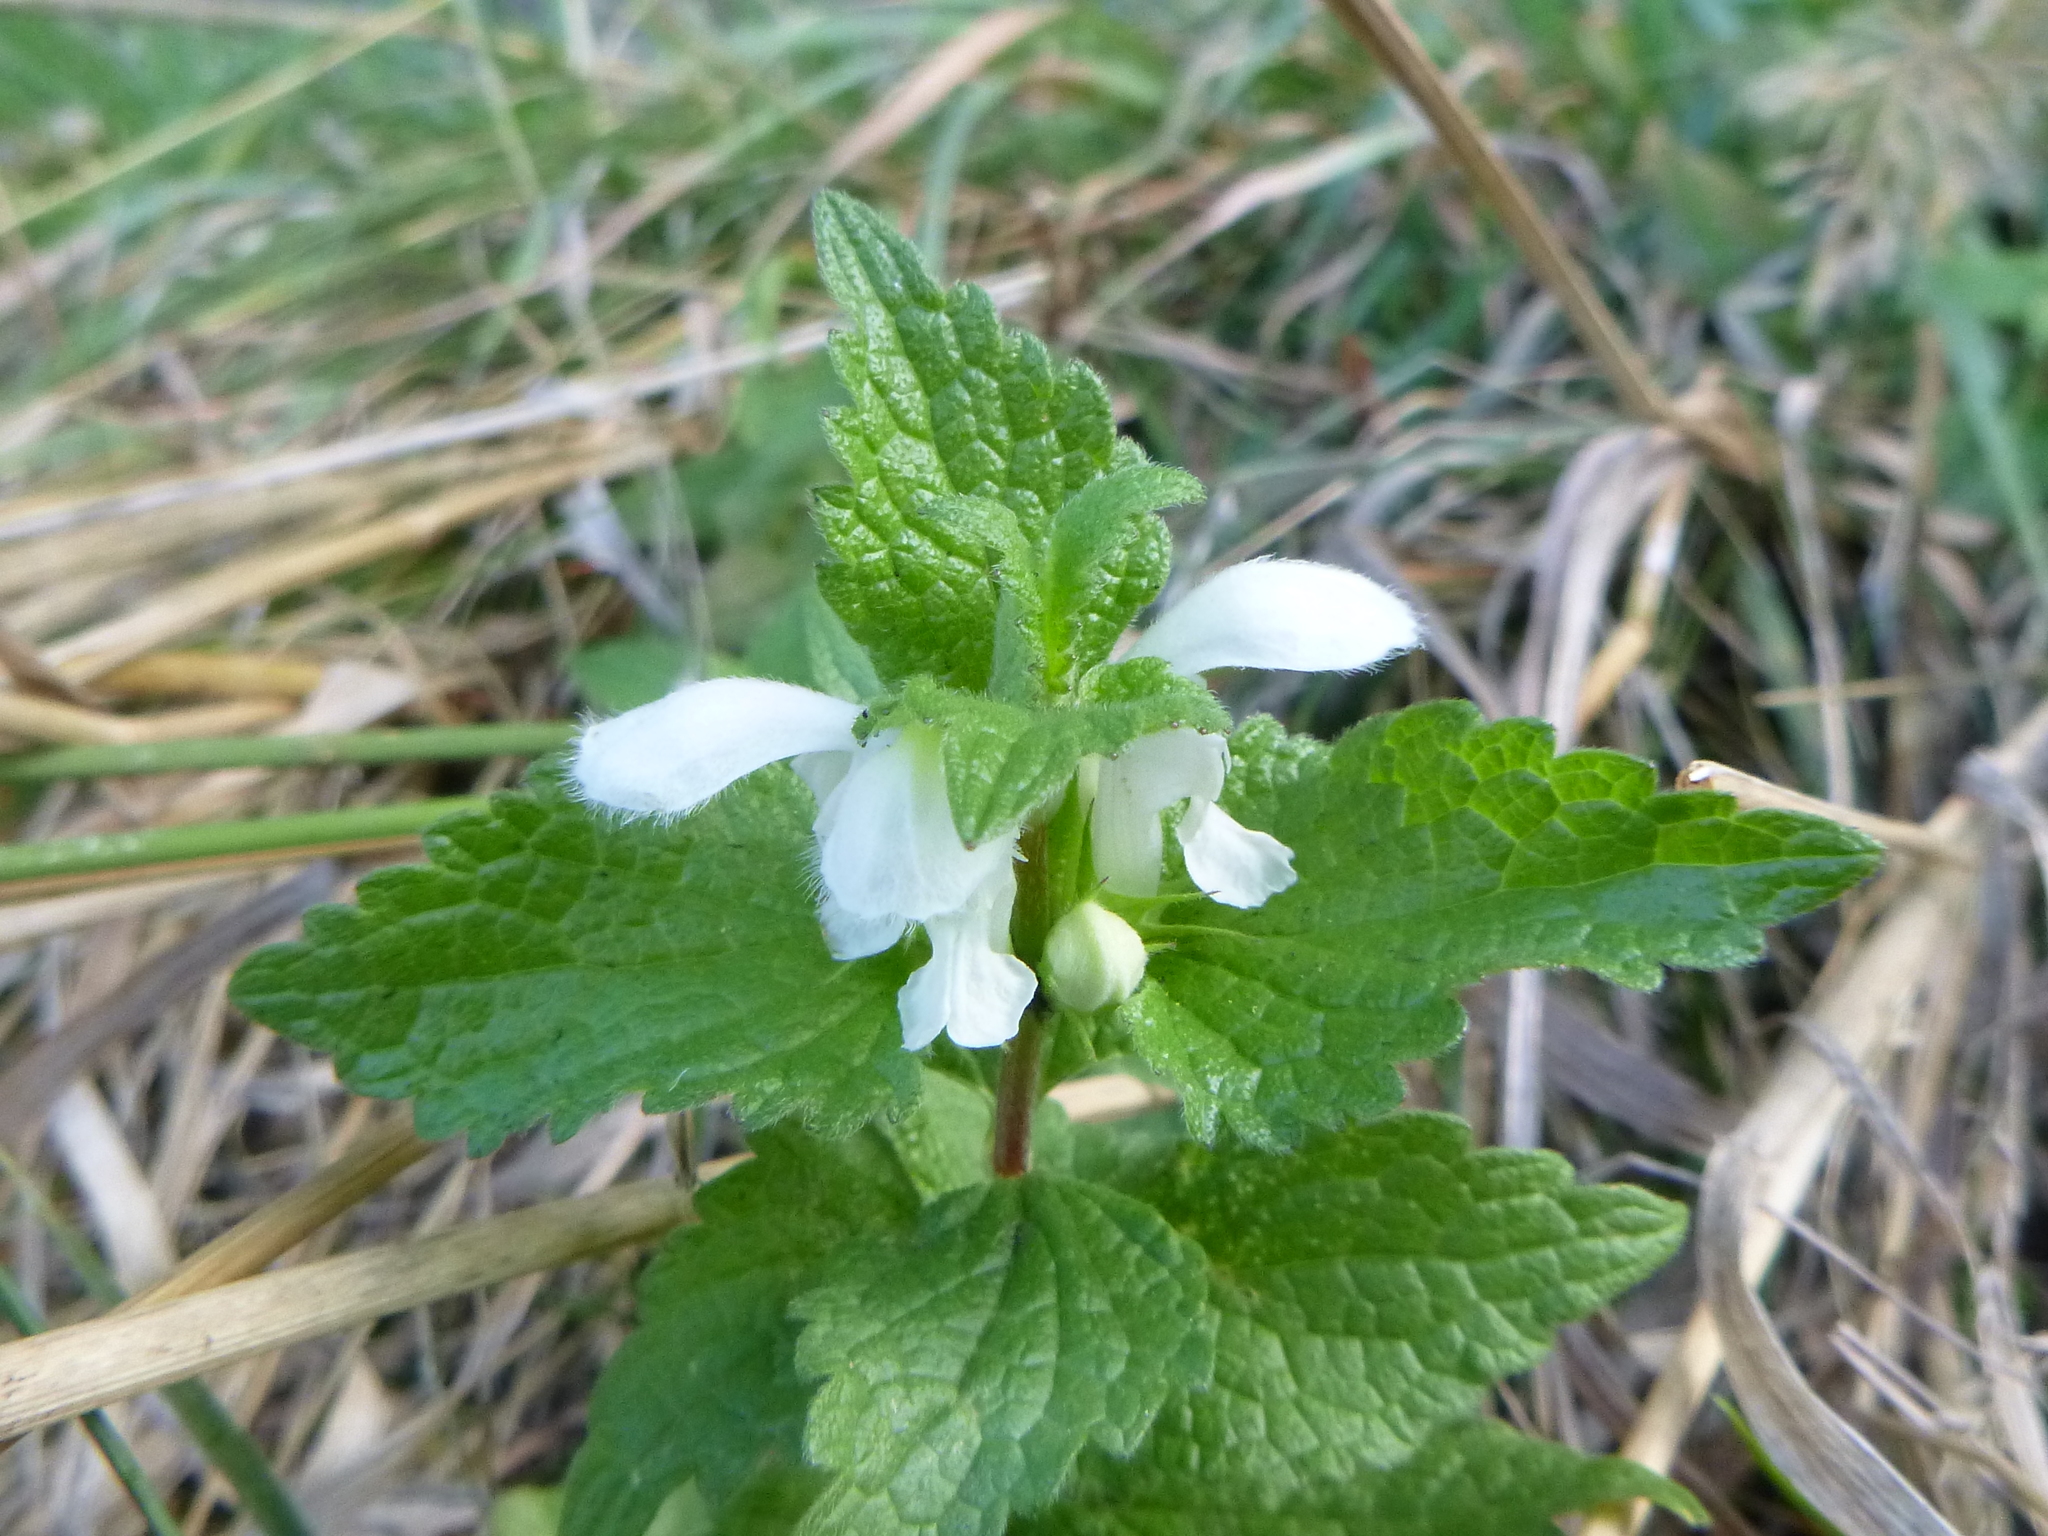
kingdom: Plantae
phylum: Tracheophyta
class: Magnoliopsida
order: Lamiales
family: Lamiaceae
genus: Lamium
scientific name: Lamium album
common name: White dead-nettle
